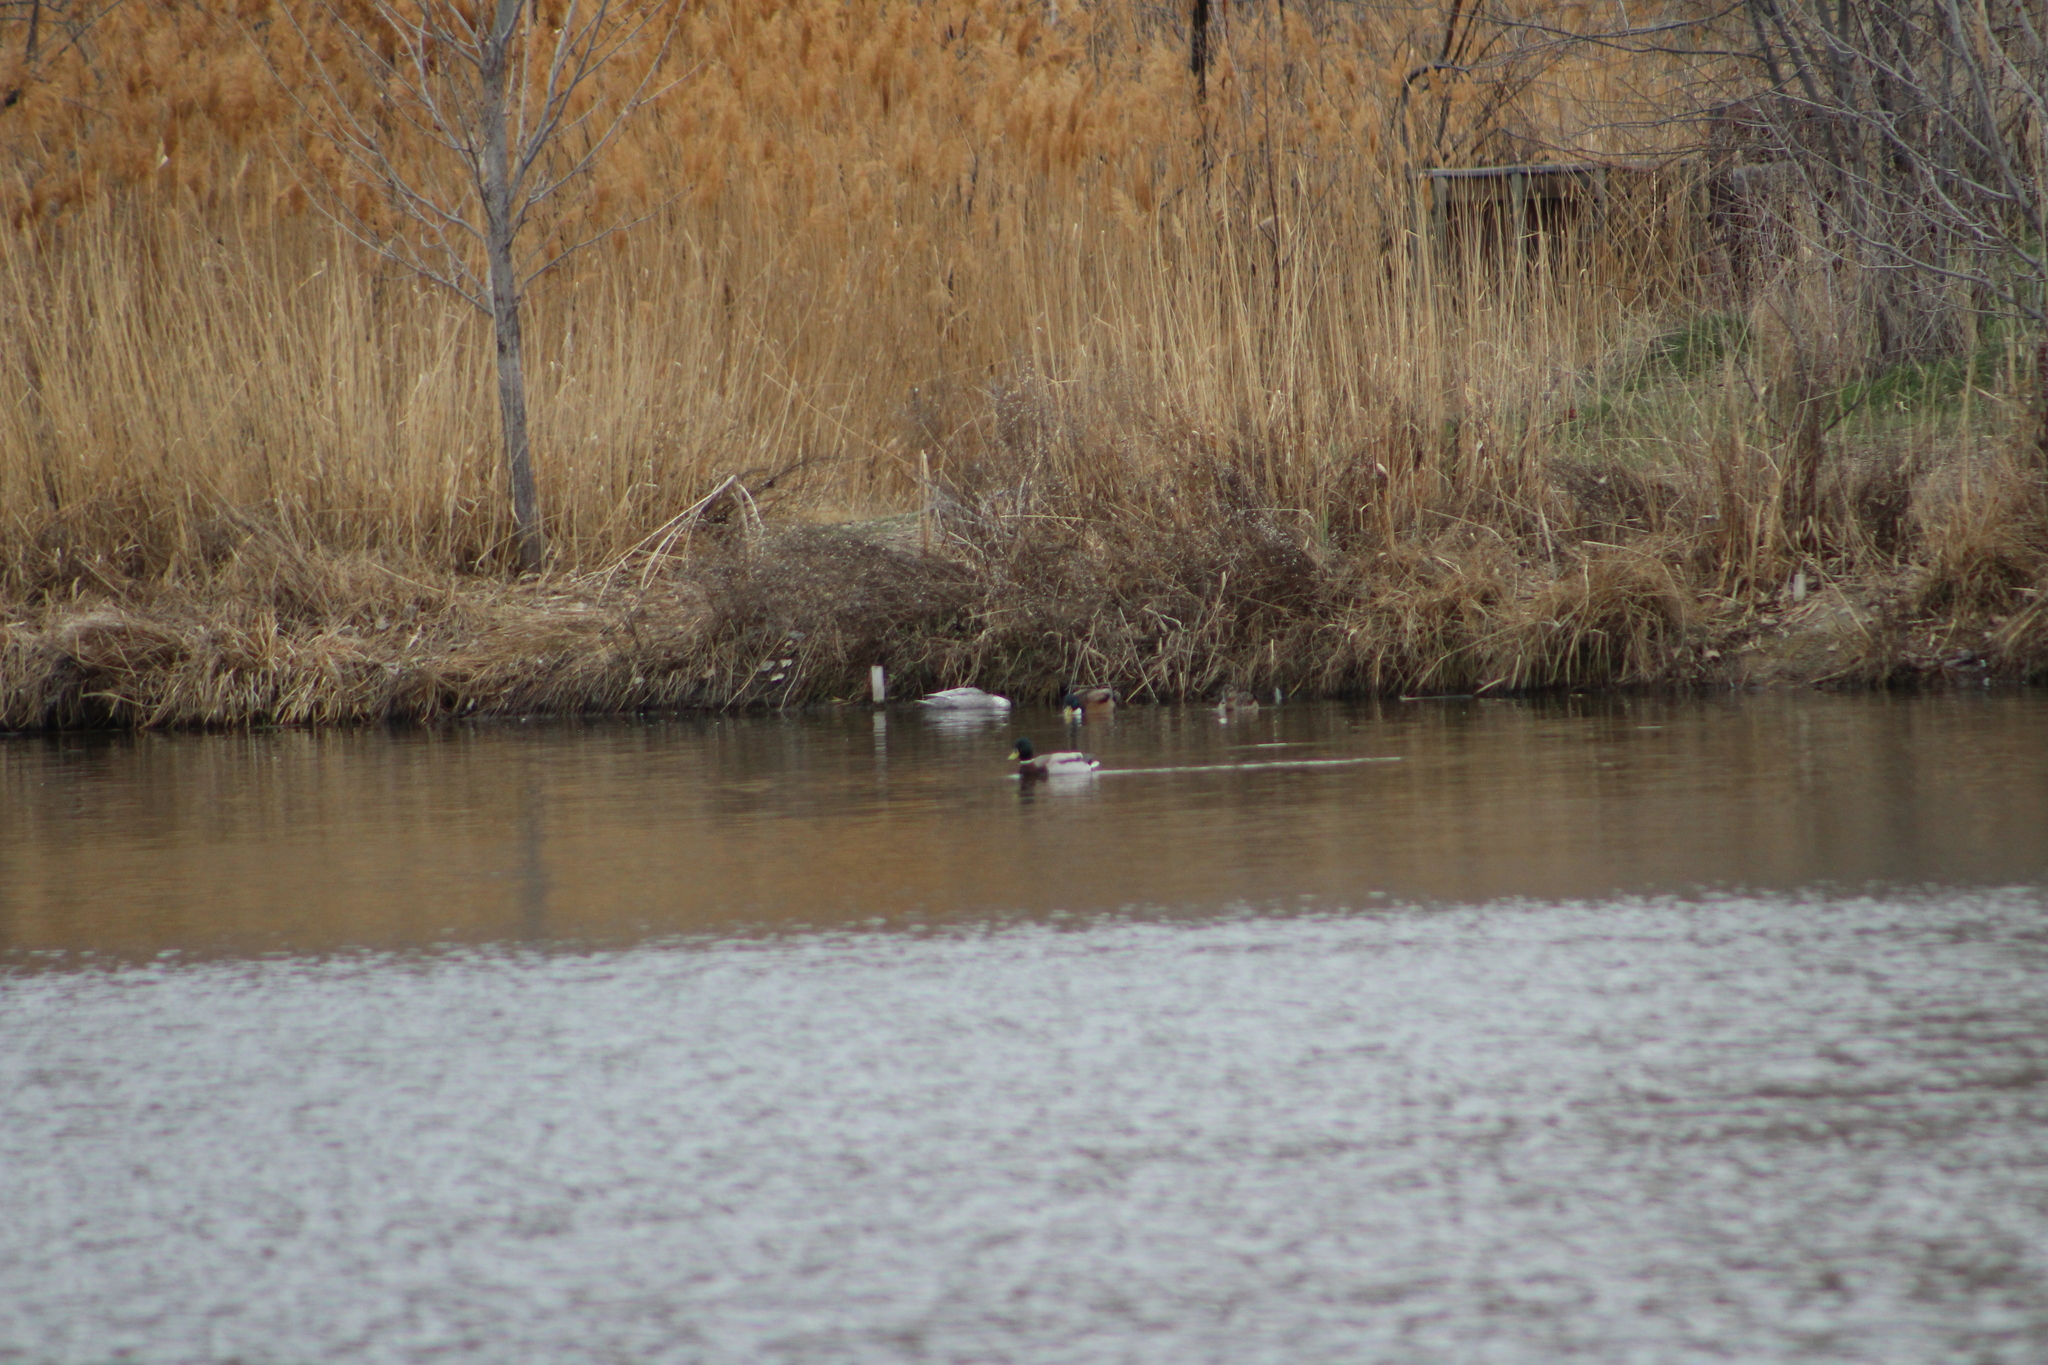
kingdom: Animalia
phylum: Chordata
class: Aves
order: Anseriformes
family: Anatidae
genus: Anas
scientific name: Anas platyrhynchos
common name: Mallard
